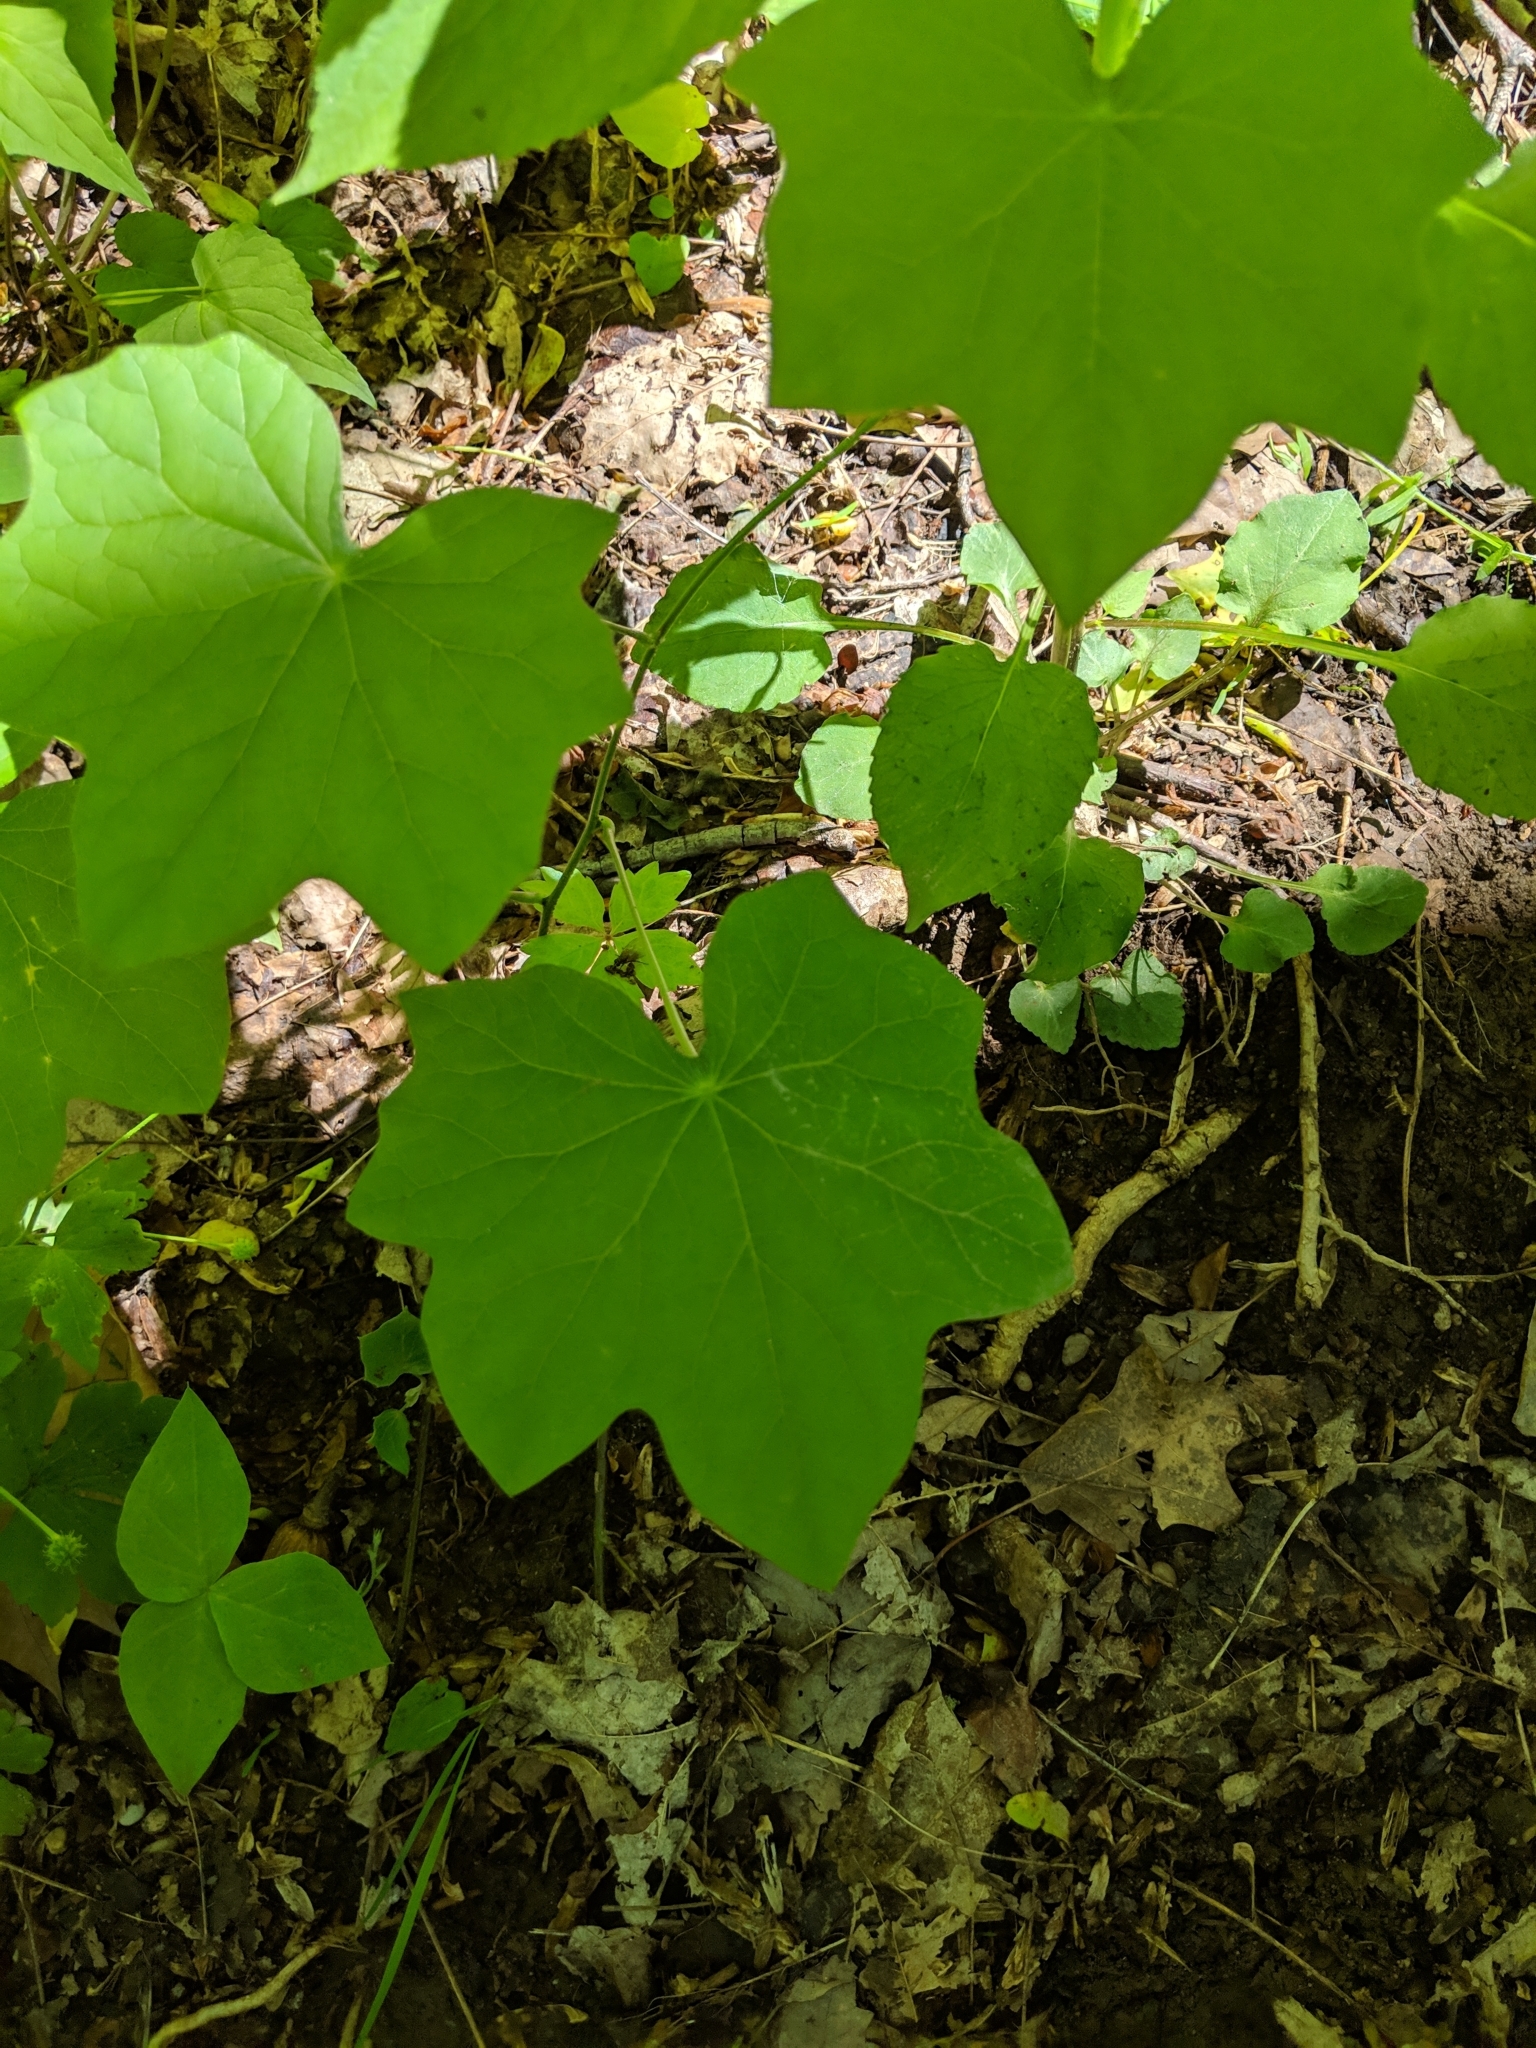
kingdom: Plantae
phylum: Tracheophyta
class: Magnoliopsida
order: Ranunculales
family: Menispermaceae
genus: Menispermum
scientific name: Menispermum canadense
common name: Moonseed
